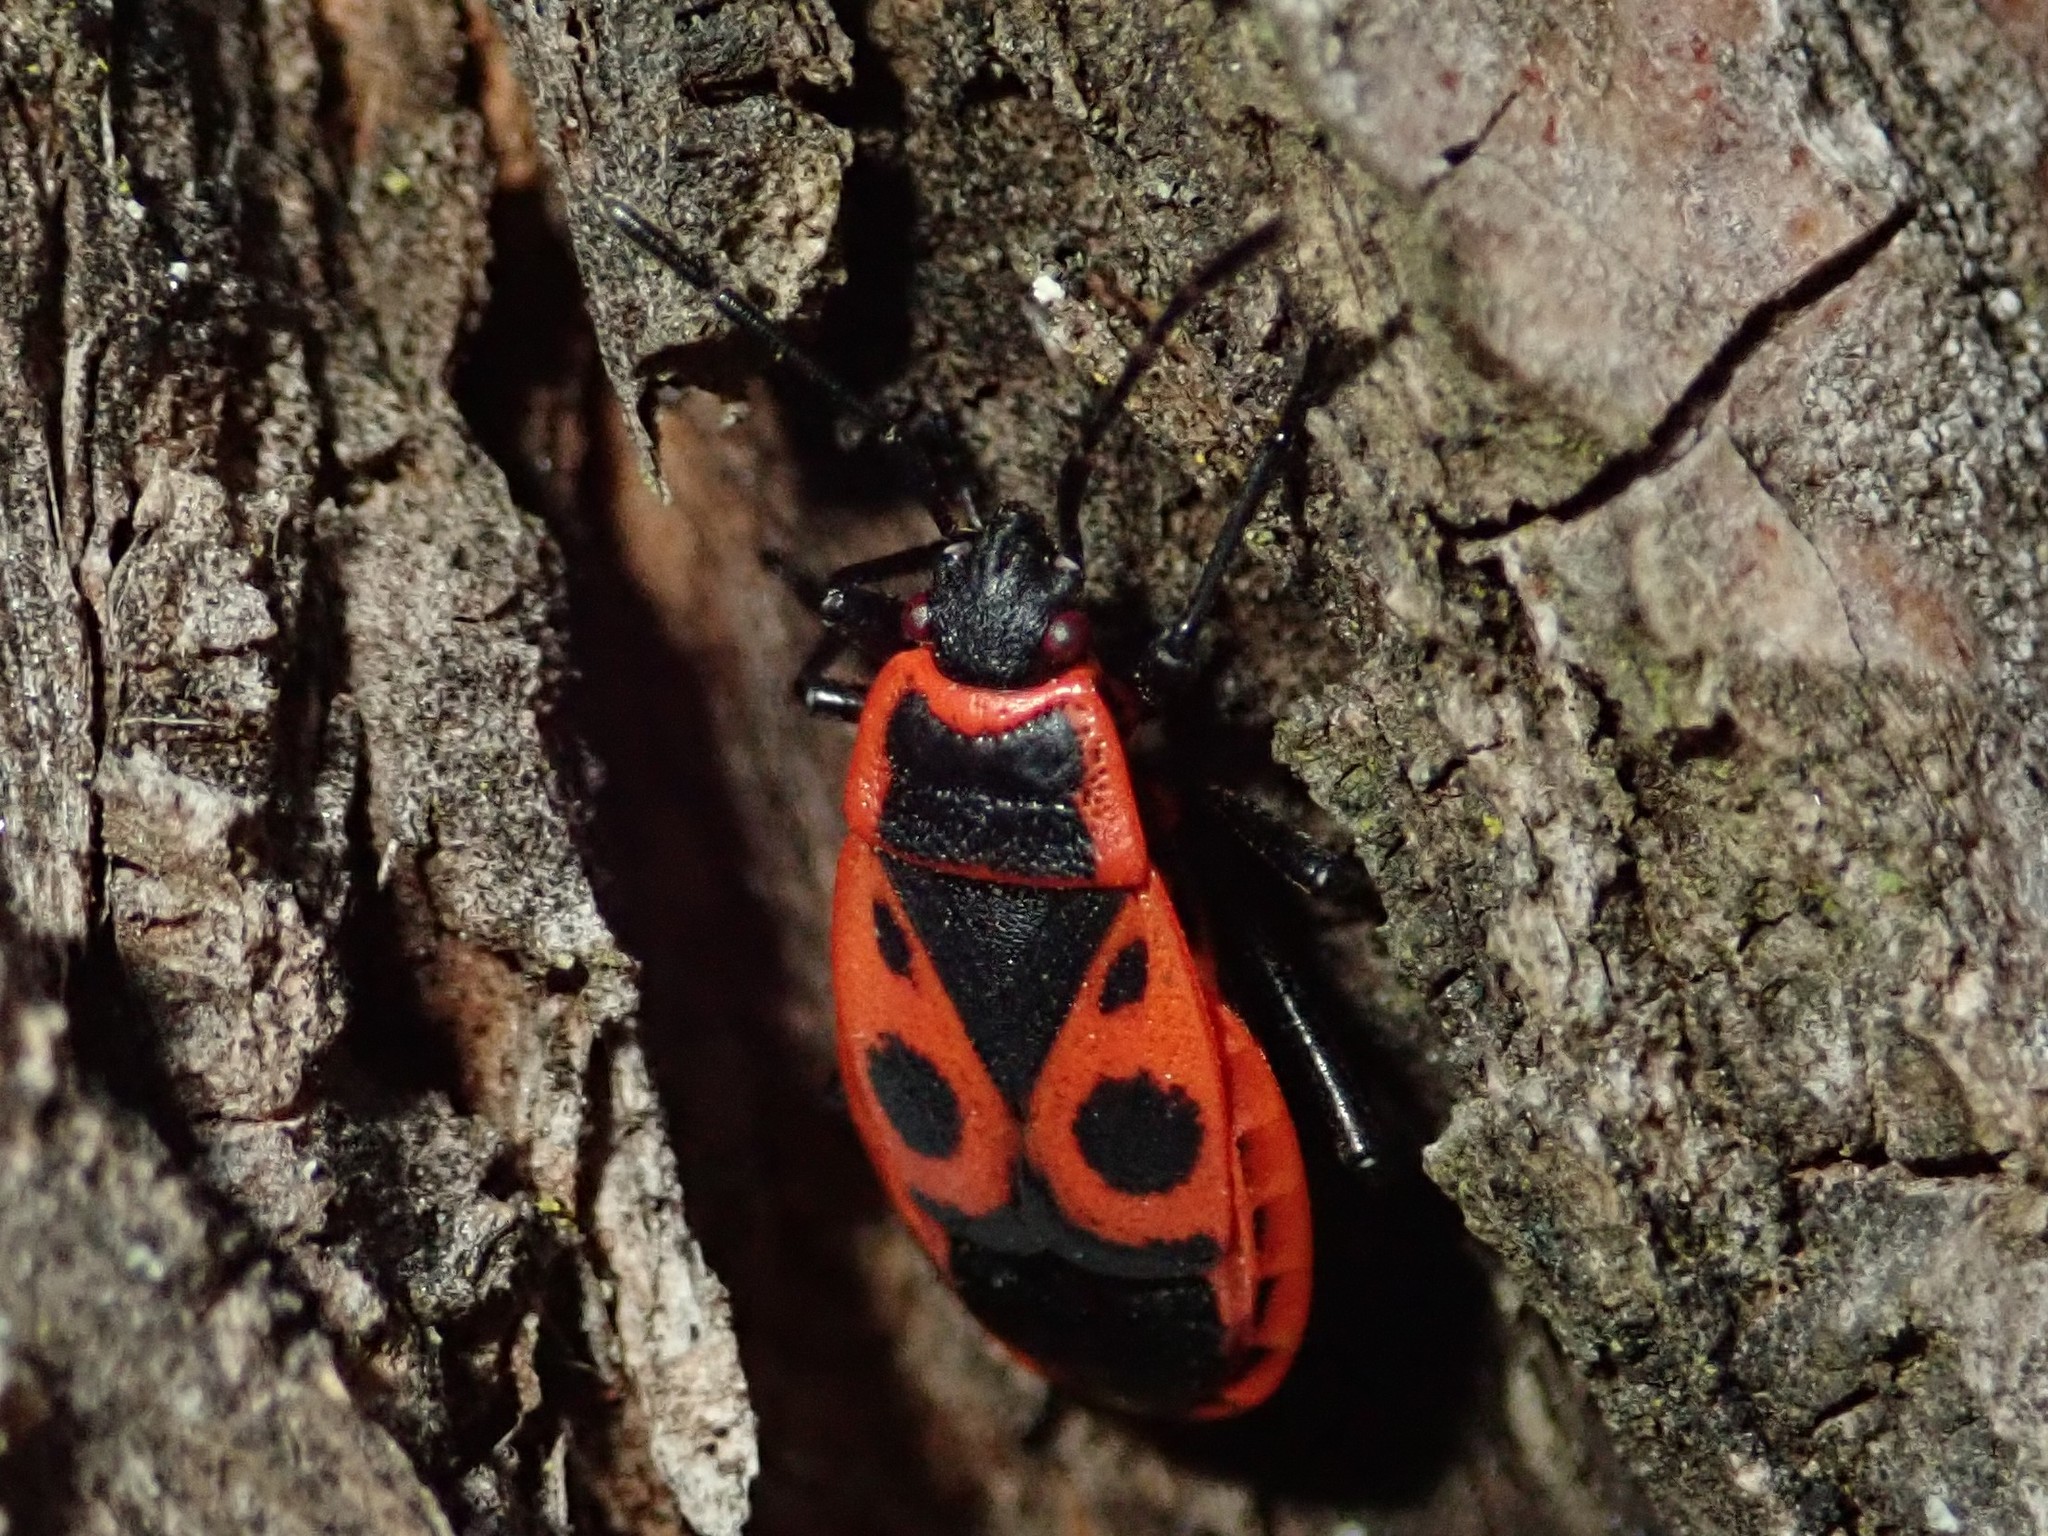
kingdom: Animalia
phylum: Arthropoda
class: Insecta
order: Hemiptera
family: Pyrrhocoridae
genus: Pyrrhocoris
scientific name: Pyrrhocoris apterus
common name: Firebug
